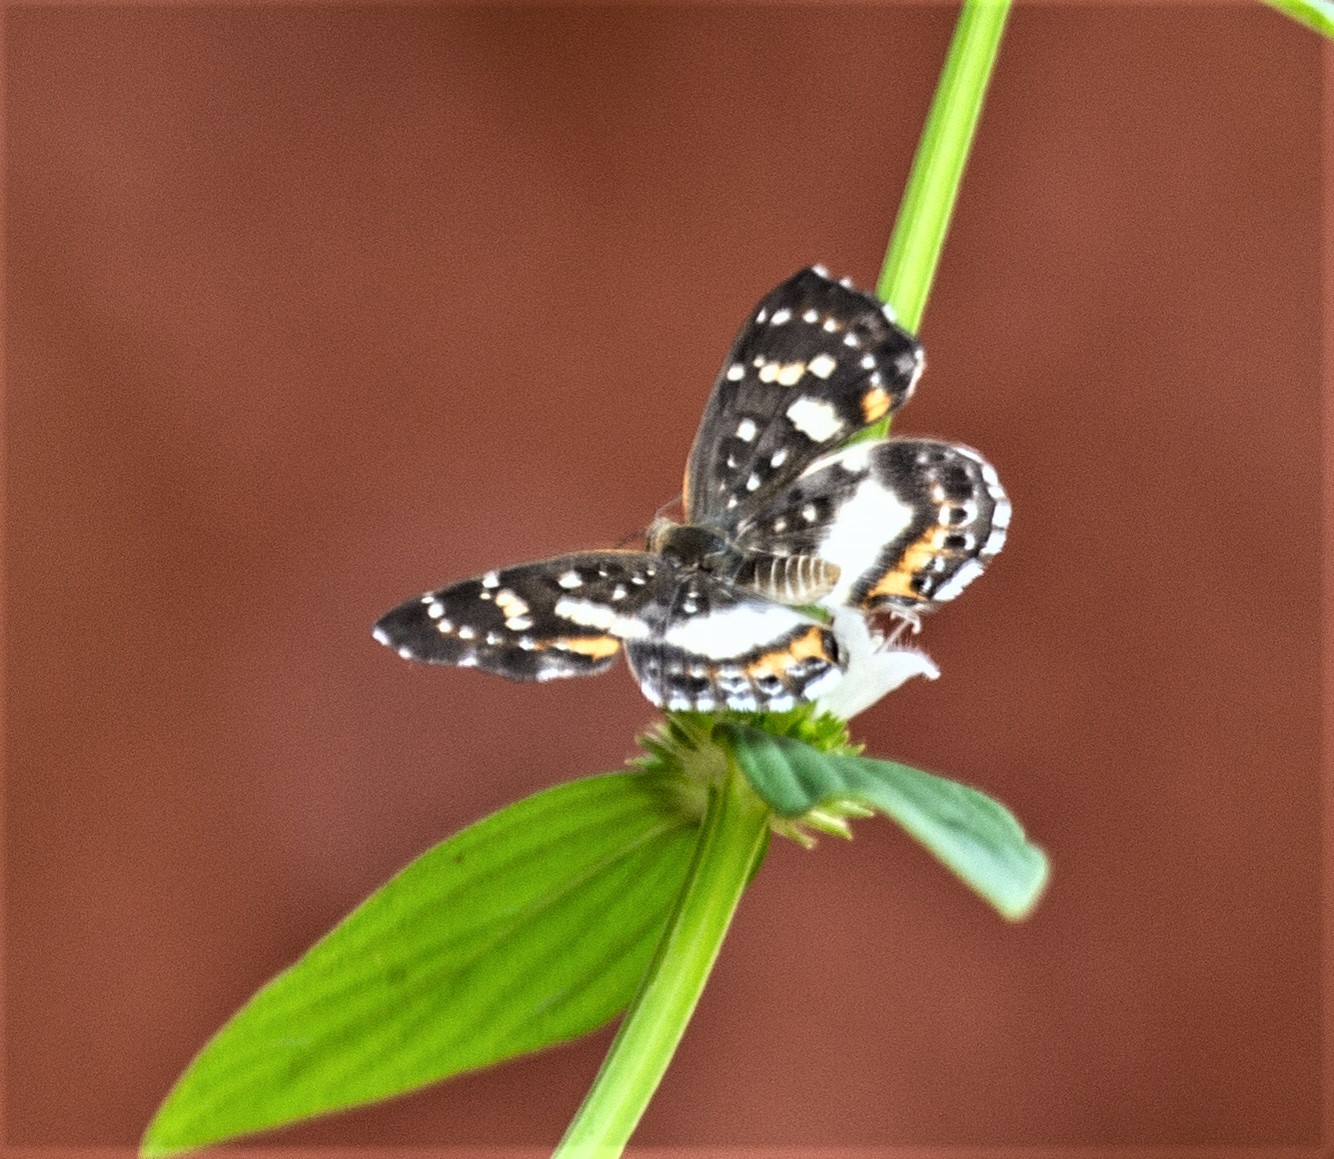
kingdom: Animalia
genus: Lemonias
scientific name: Lemonias zygia
